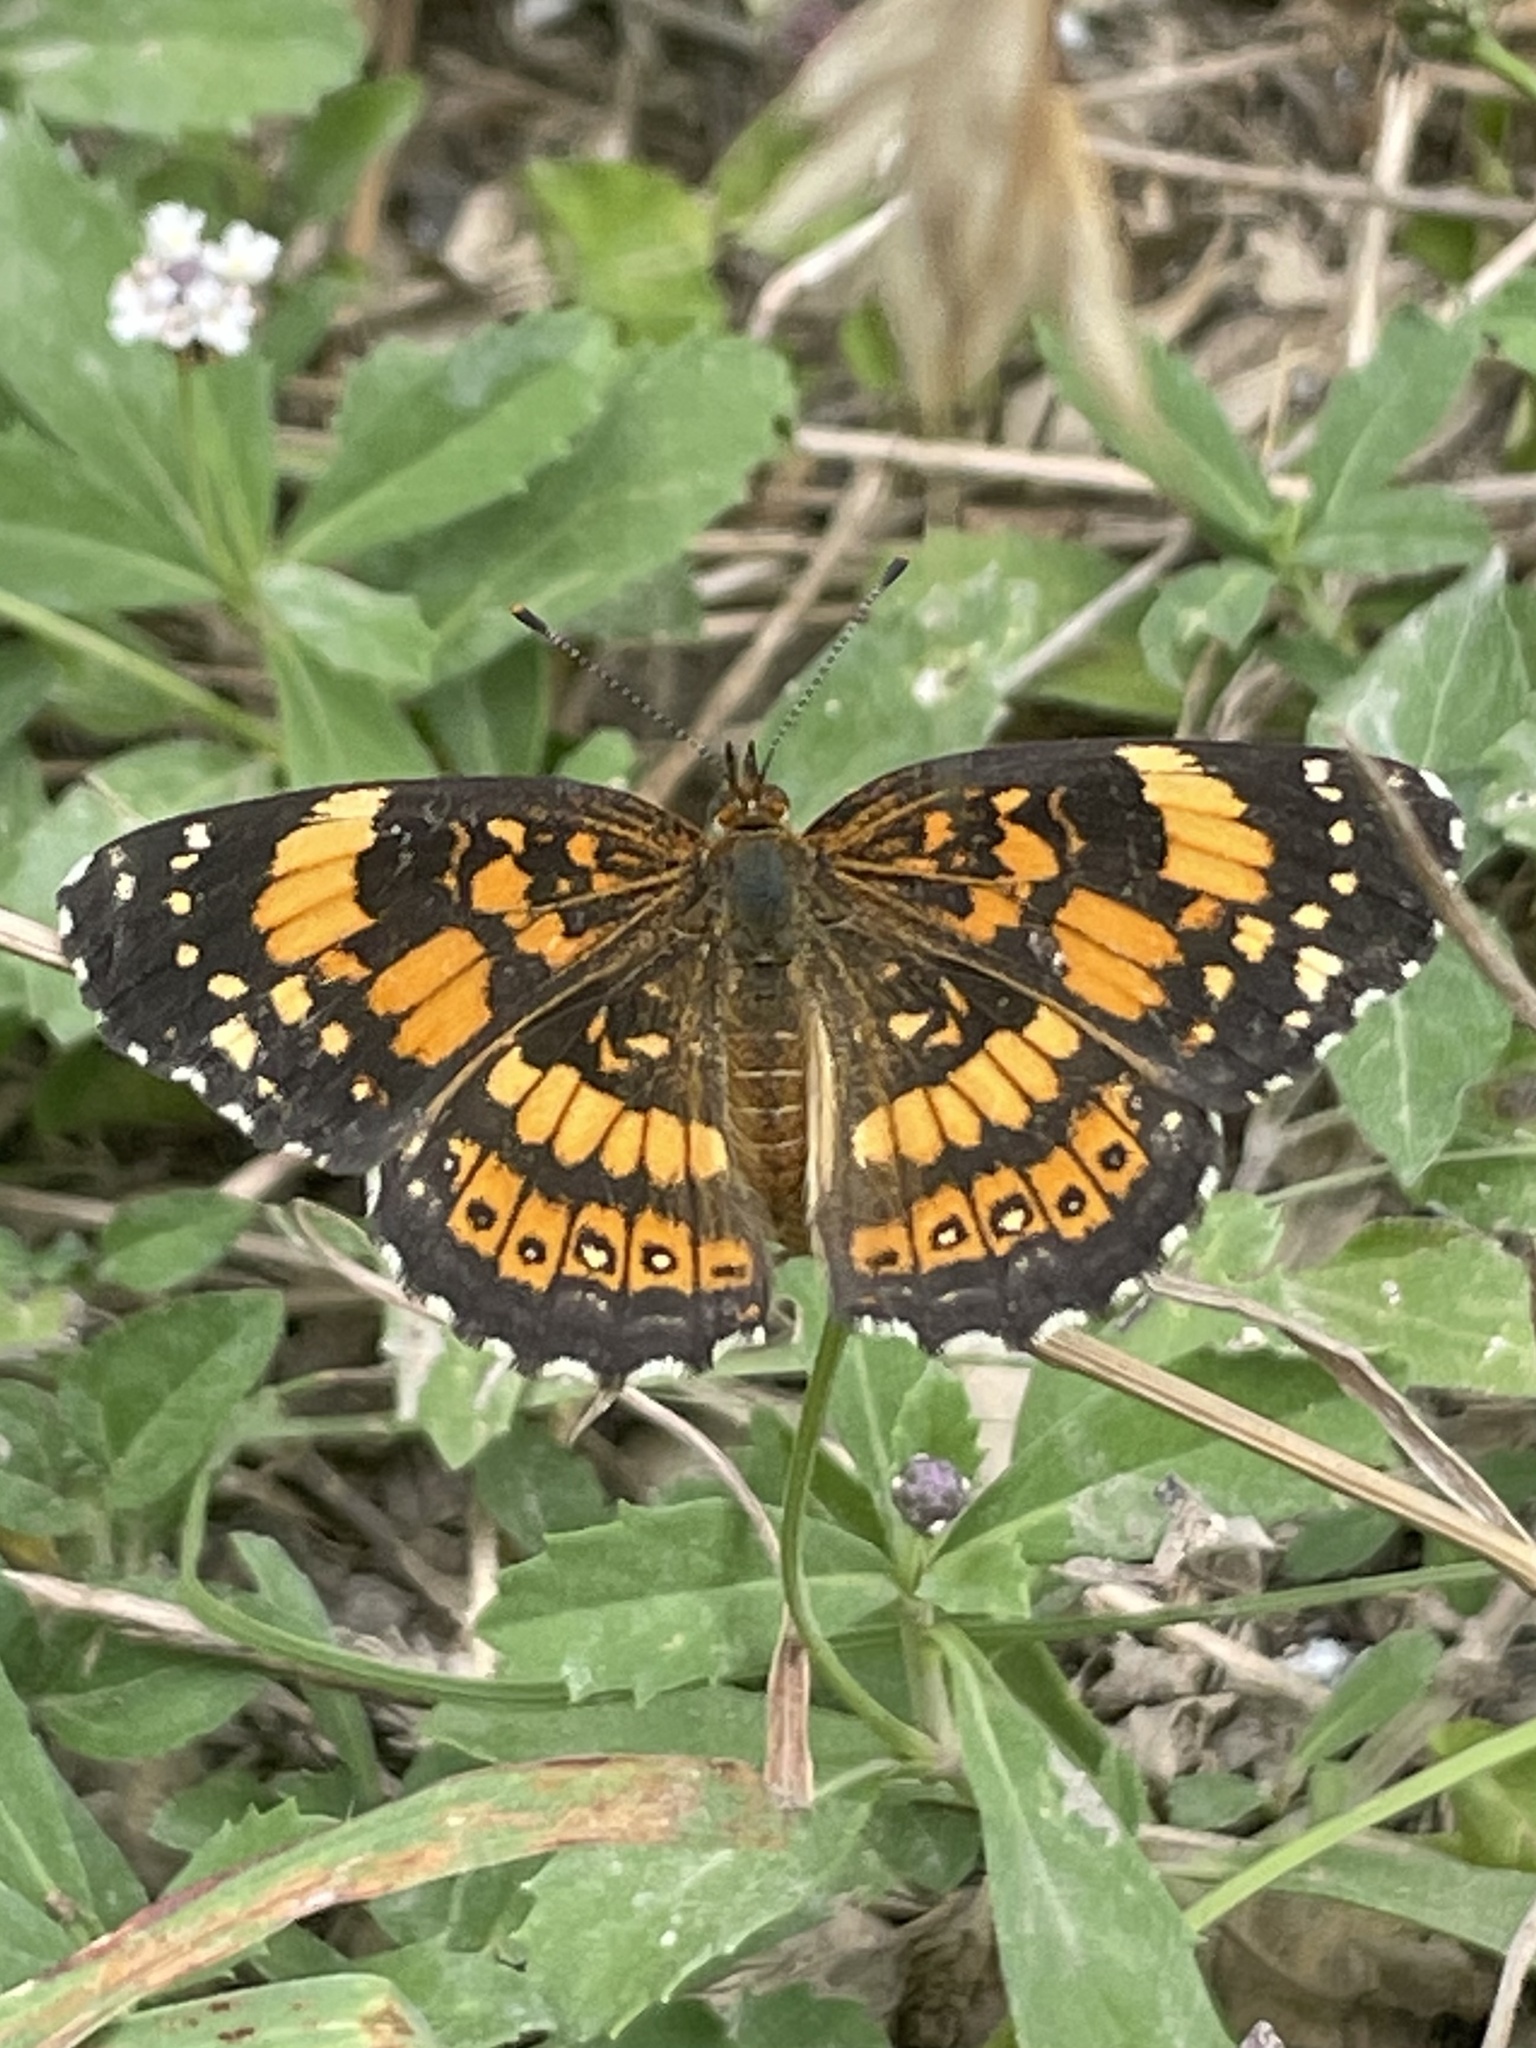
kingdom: Animalia
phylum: Arthropoda
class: Insecta
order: Lepidoptera
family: Nymphalidae
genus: Chlosyne
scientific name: Chlosyne nycteis
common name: Silvery checkerspot
